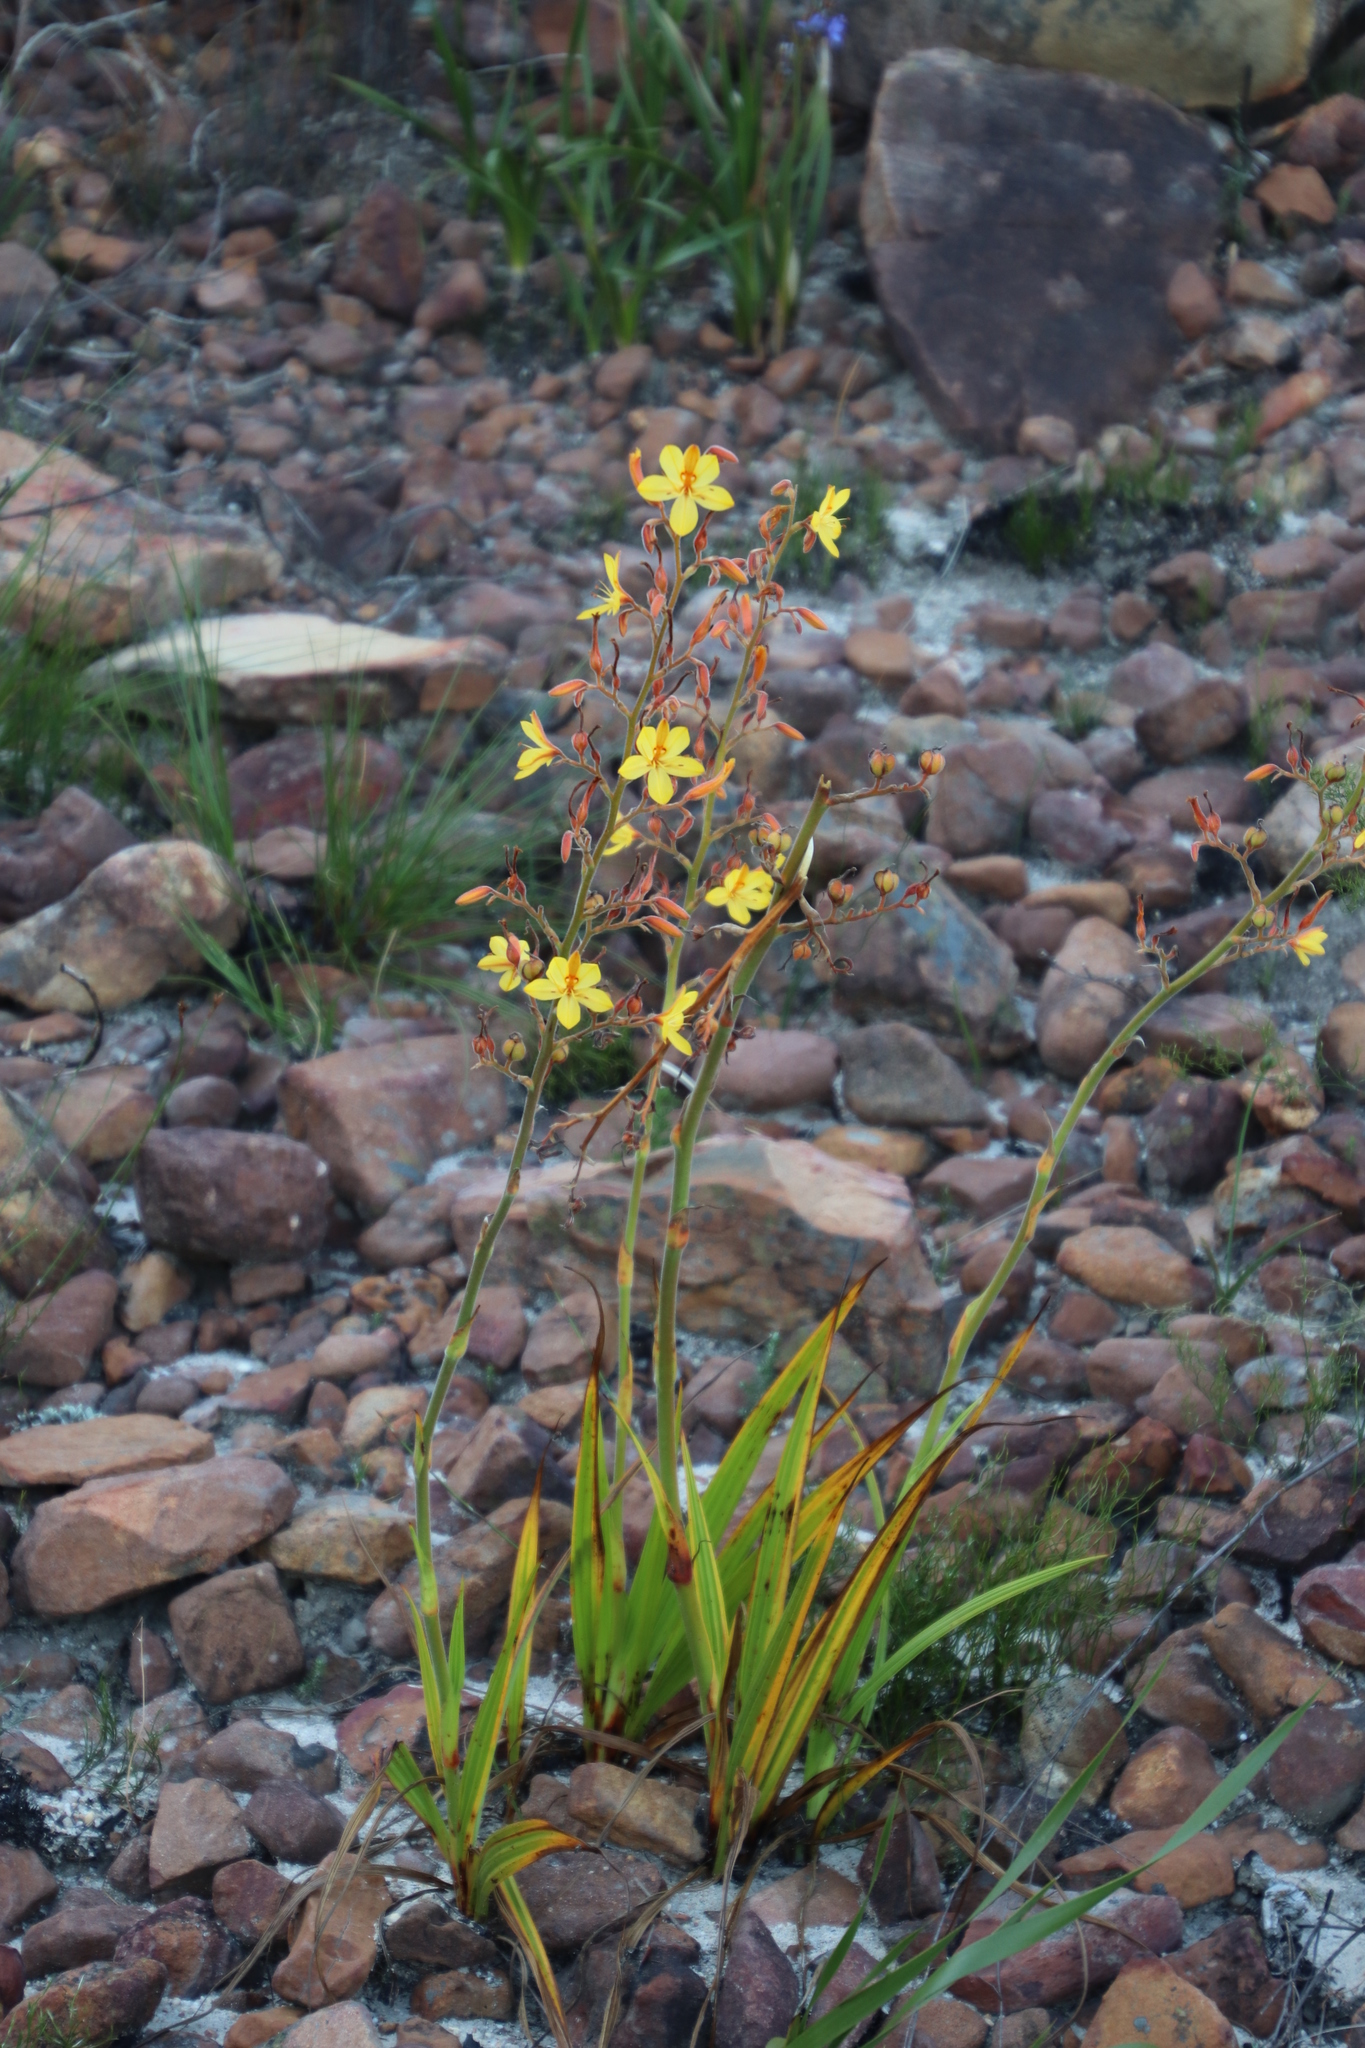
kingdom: Plantae
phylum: Tracheophyta
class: Liliopsida
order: Commelinales
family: Haemodoraceae
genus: Wachendorfia
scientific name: Wachendorfia paniculata
